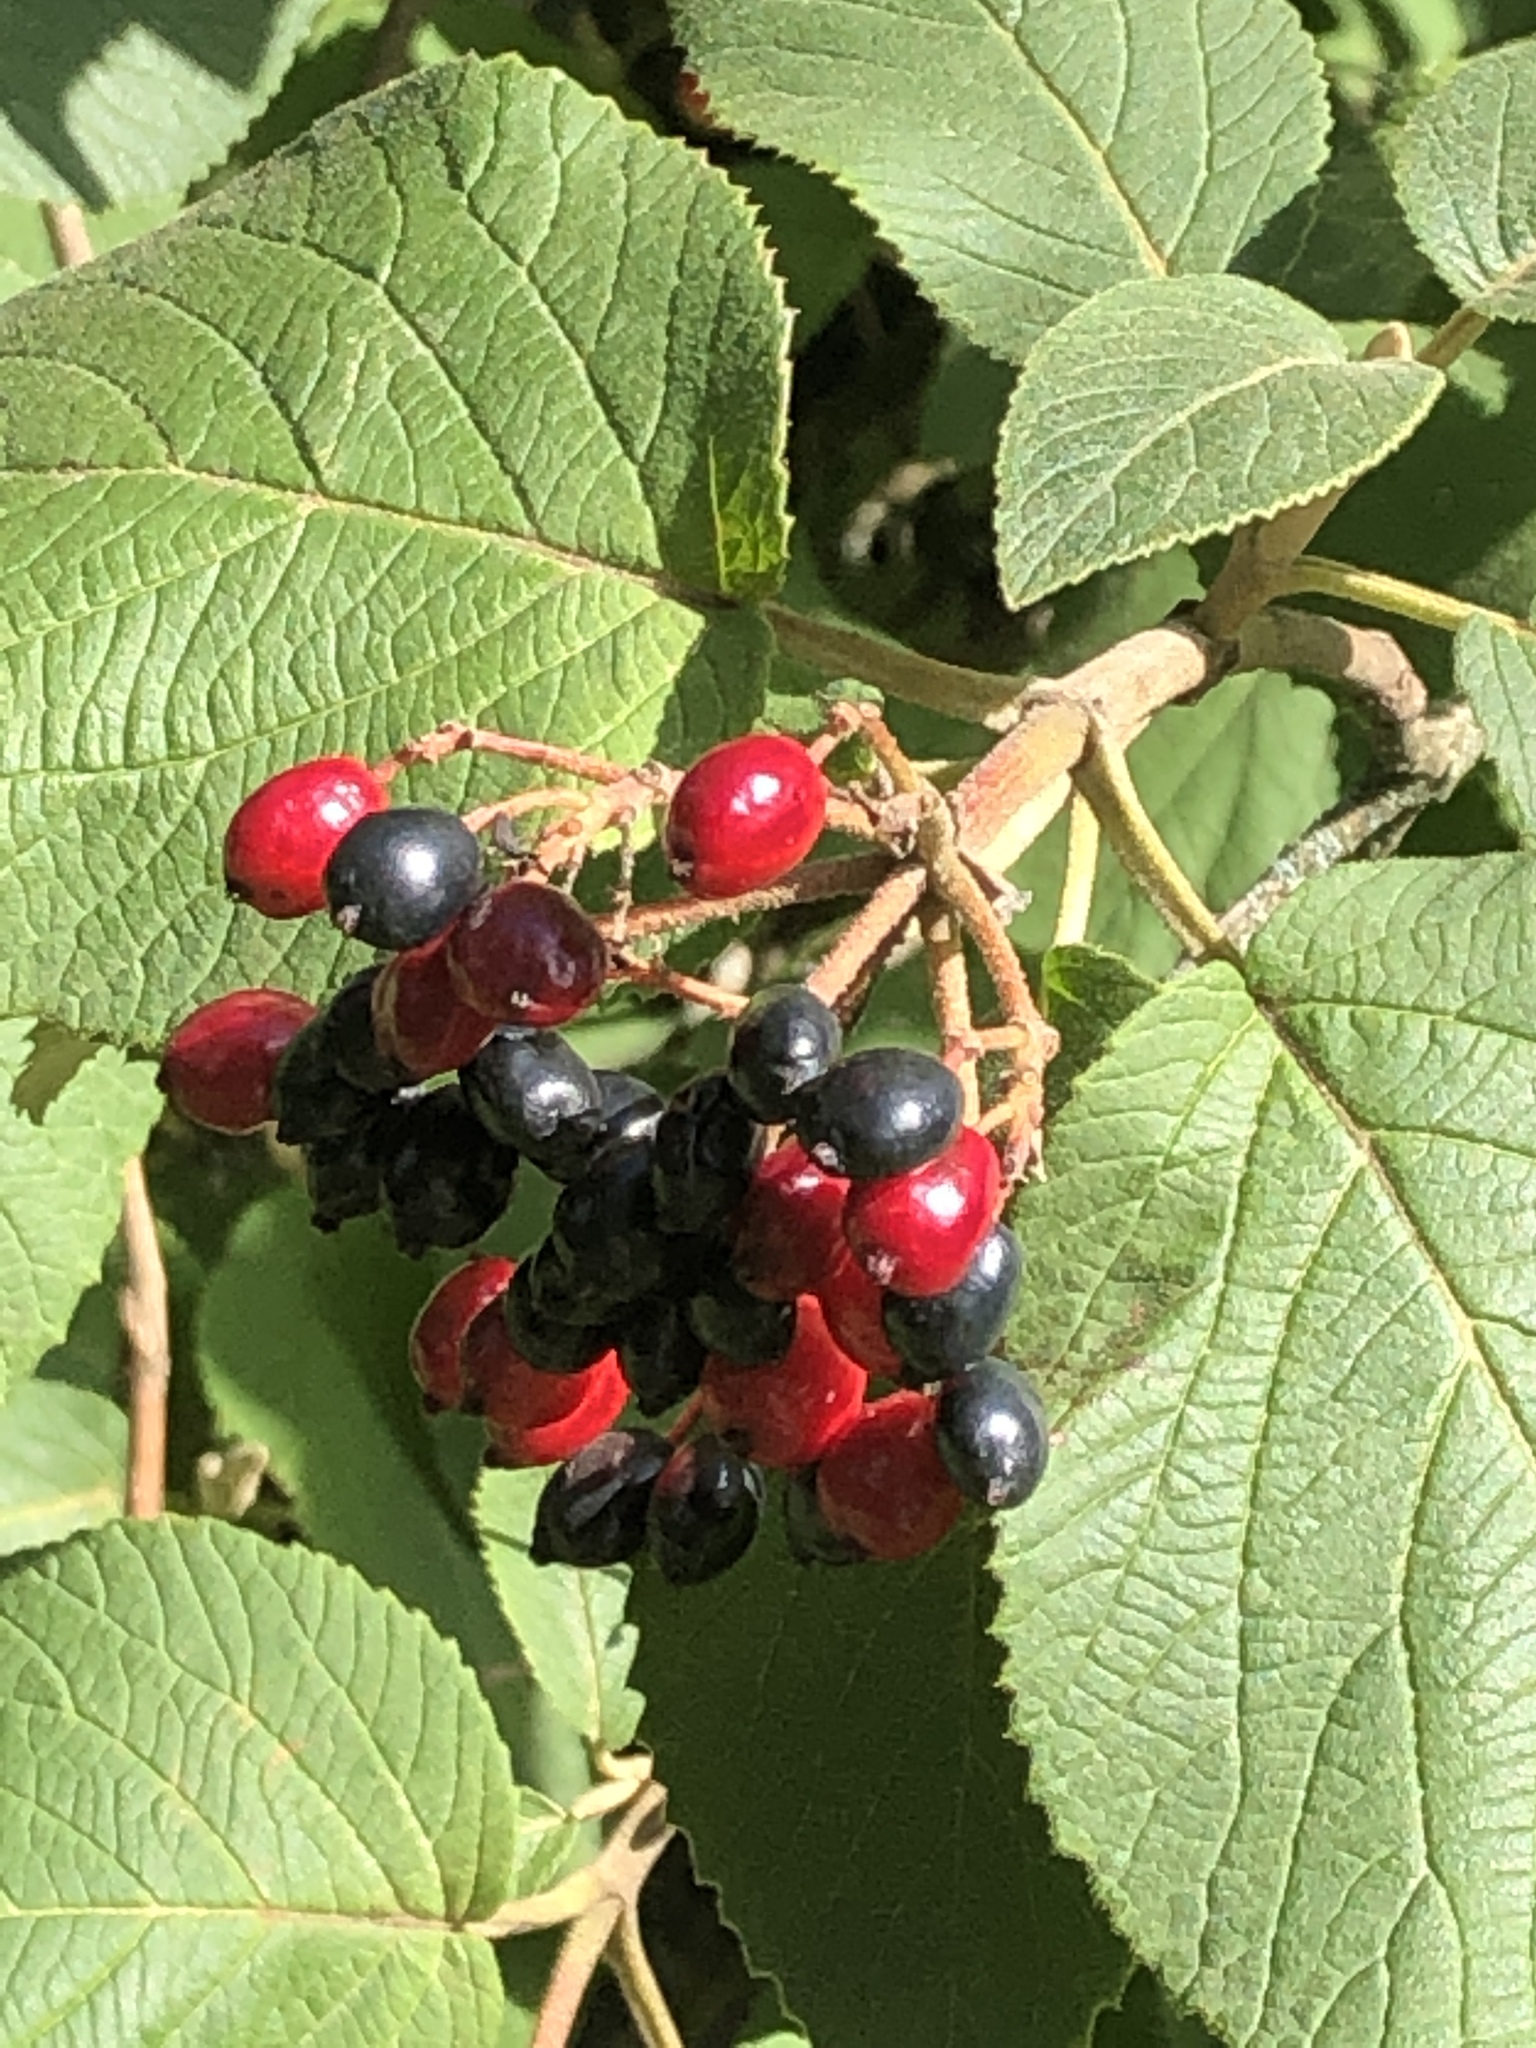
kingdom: Plantae
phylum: Tracheophyta
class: Magnoliopsida
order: Dipsacales
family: Viburnaceae
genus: Viburnum
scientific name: Viburnum lantana
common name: Wayfaring tree
